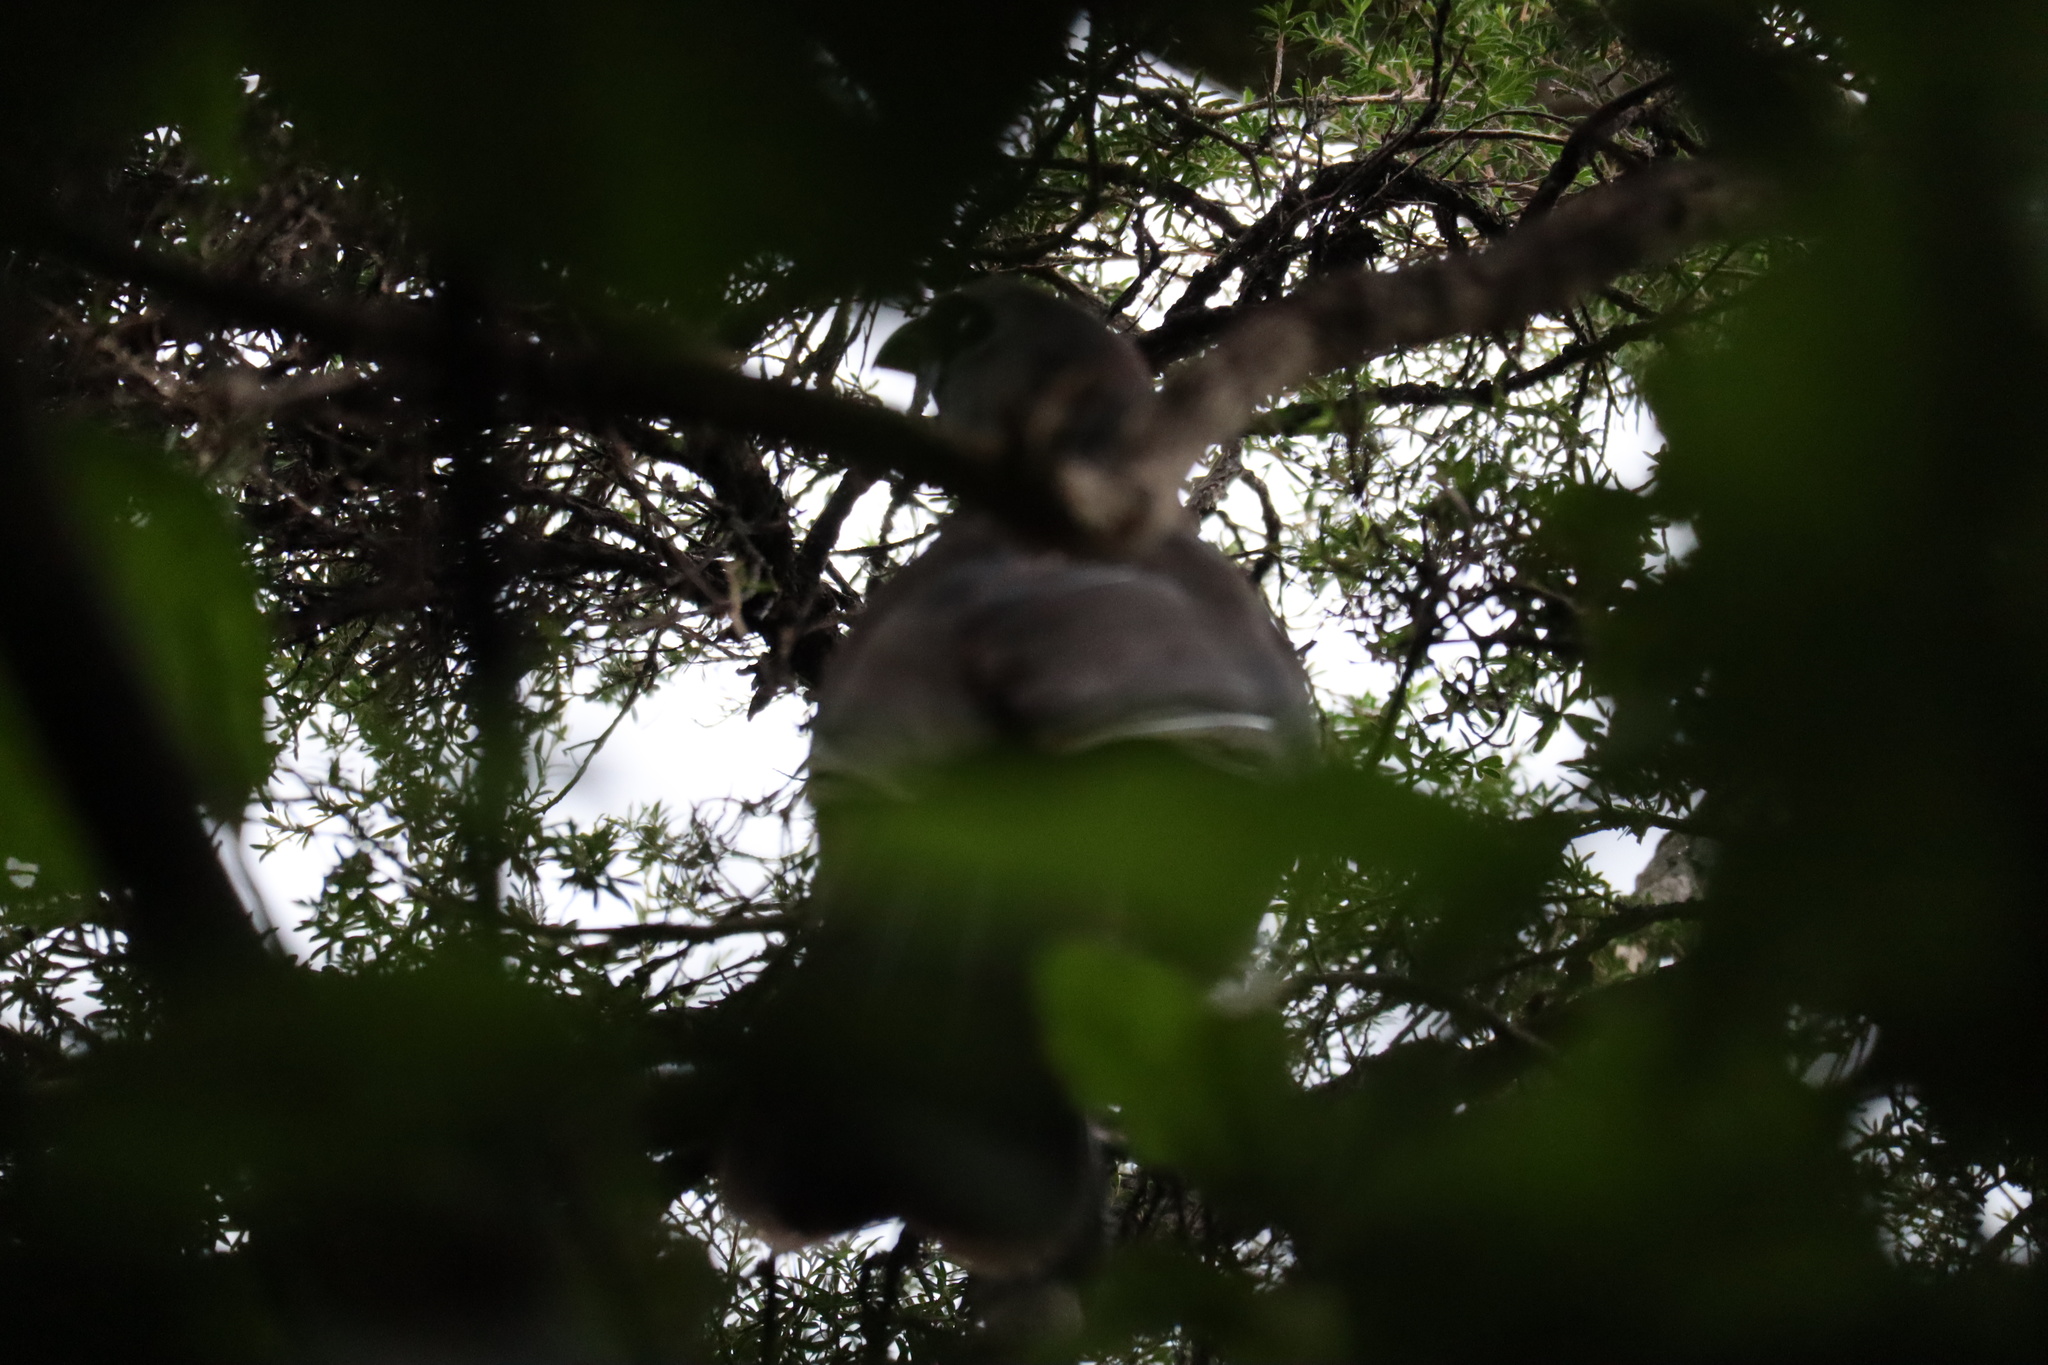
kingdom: Animalia
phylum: Chordata
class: Aves
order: Passeriformes
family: Callaeatidae
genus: Callaeas
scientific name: Callaeas cinereus
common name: South island kokako
